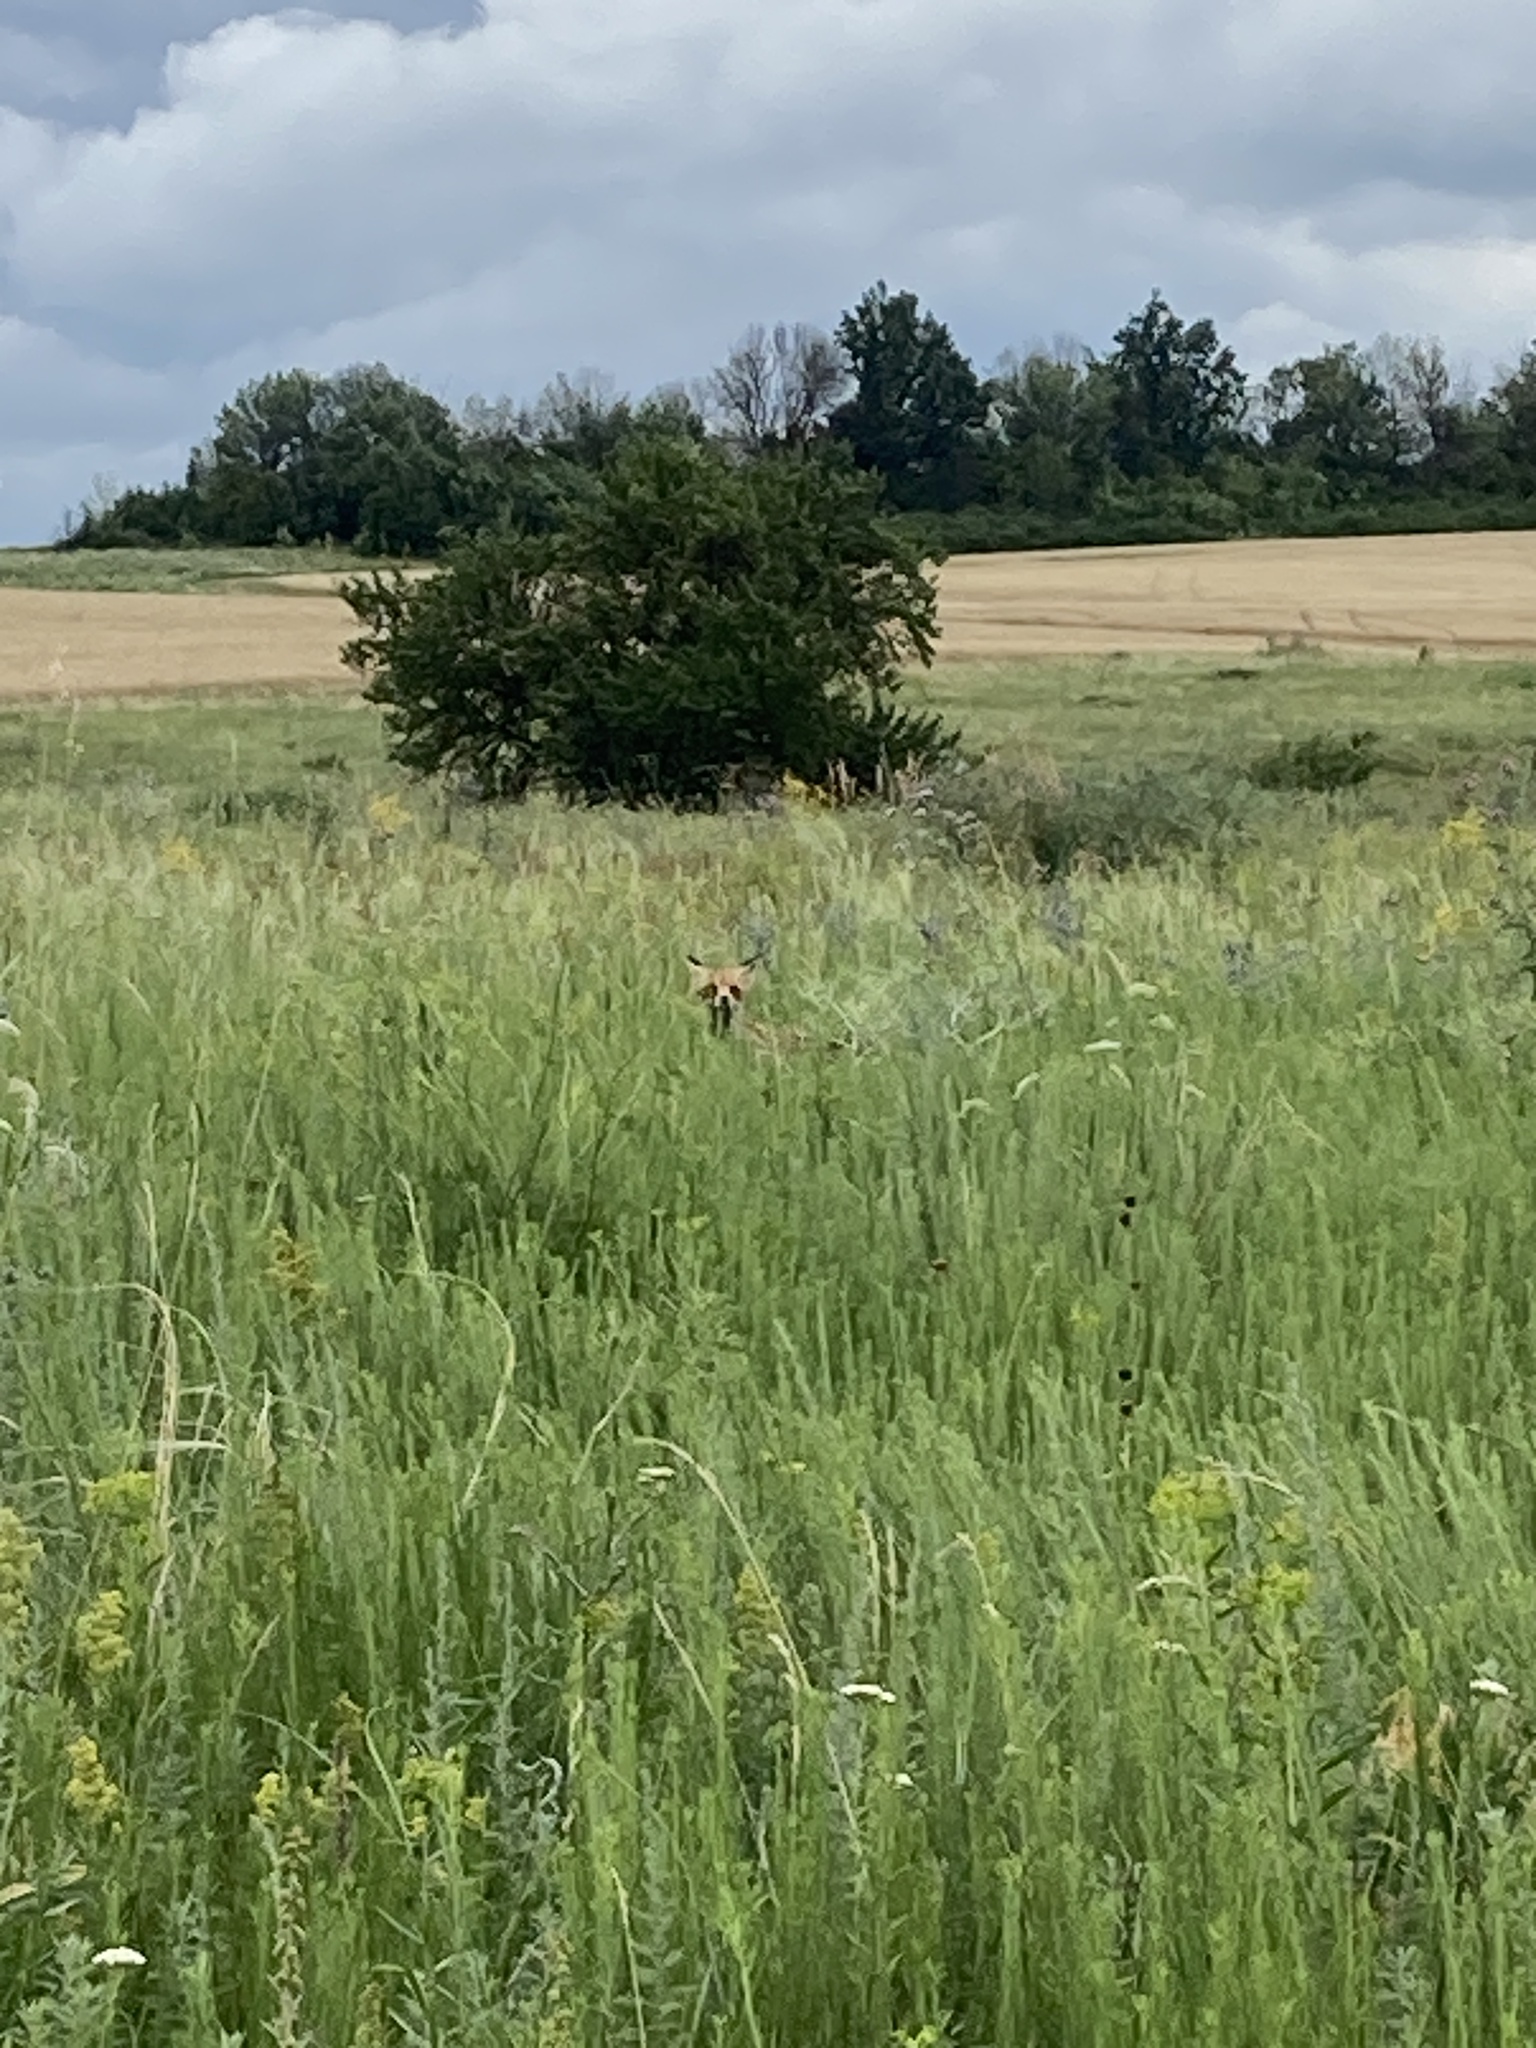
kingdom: Animalia
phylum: Chordata
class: Mammalia
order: Carnivora
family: Canidae
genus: Vulpes
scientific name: Vulpes vulpes
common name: Red fox
